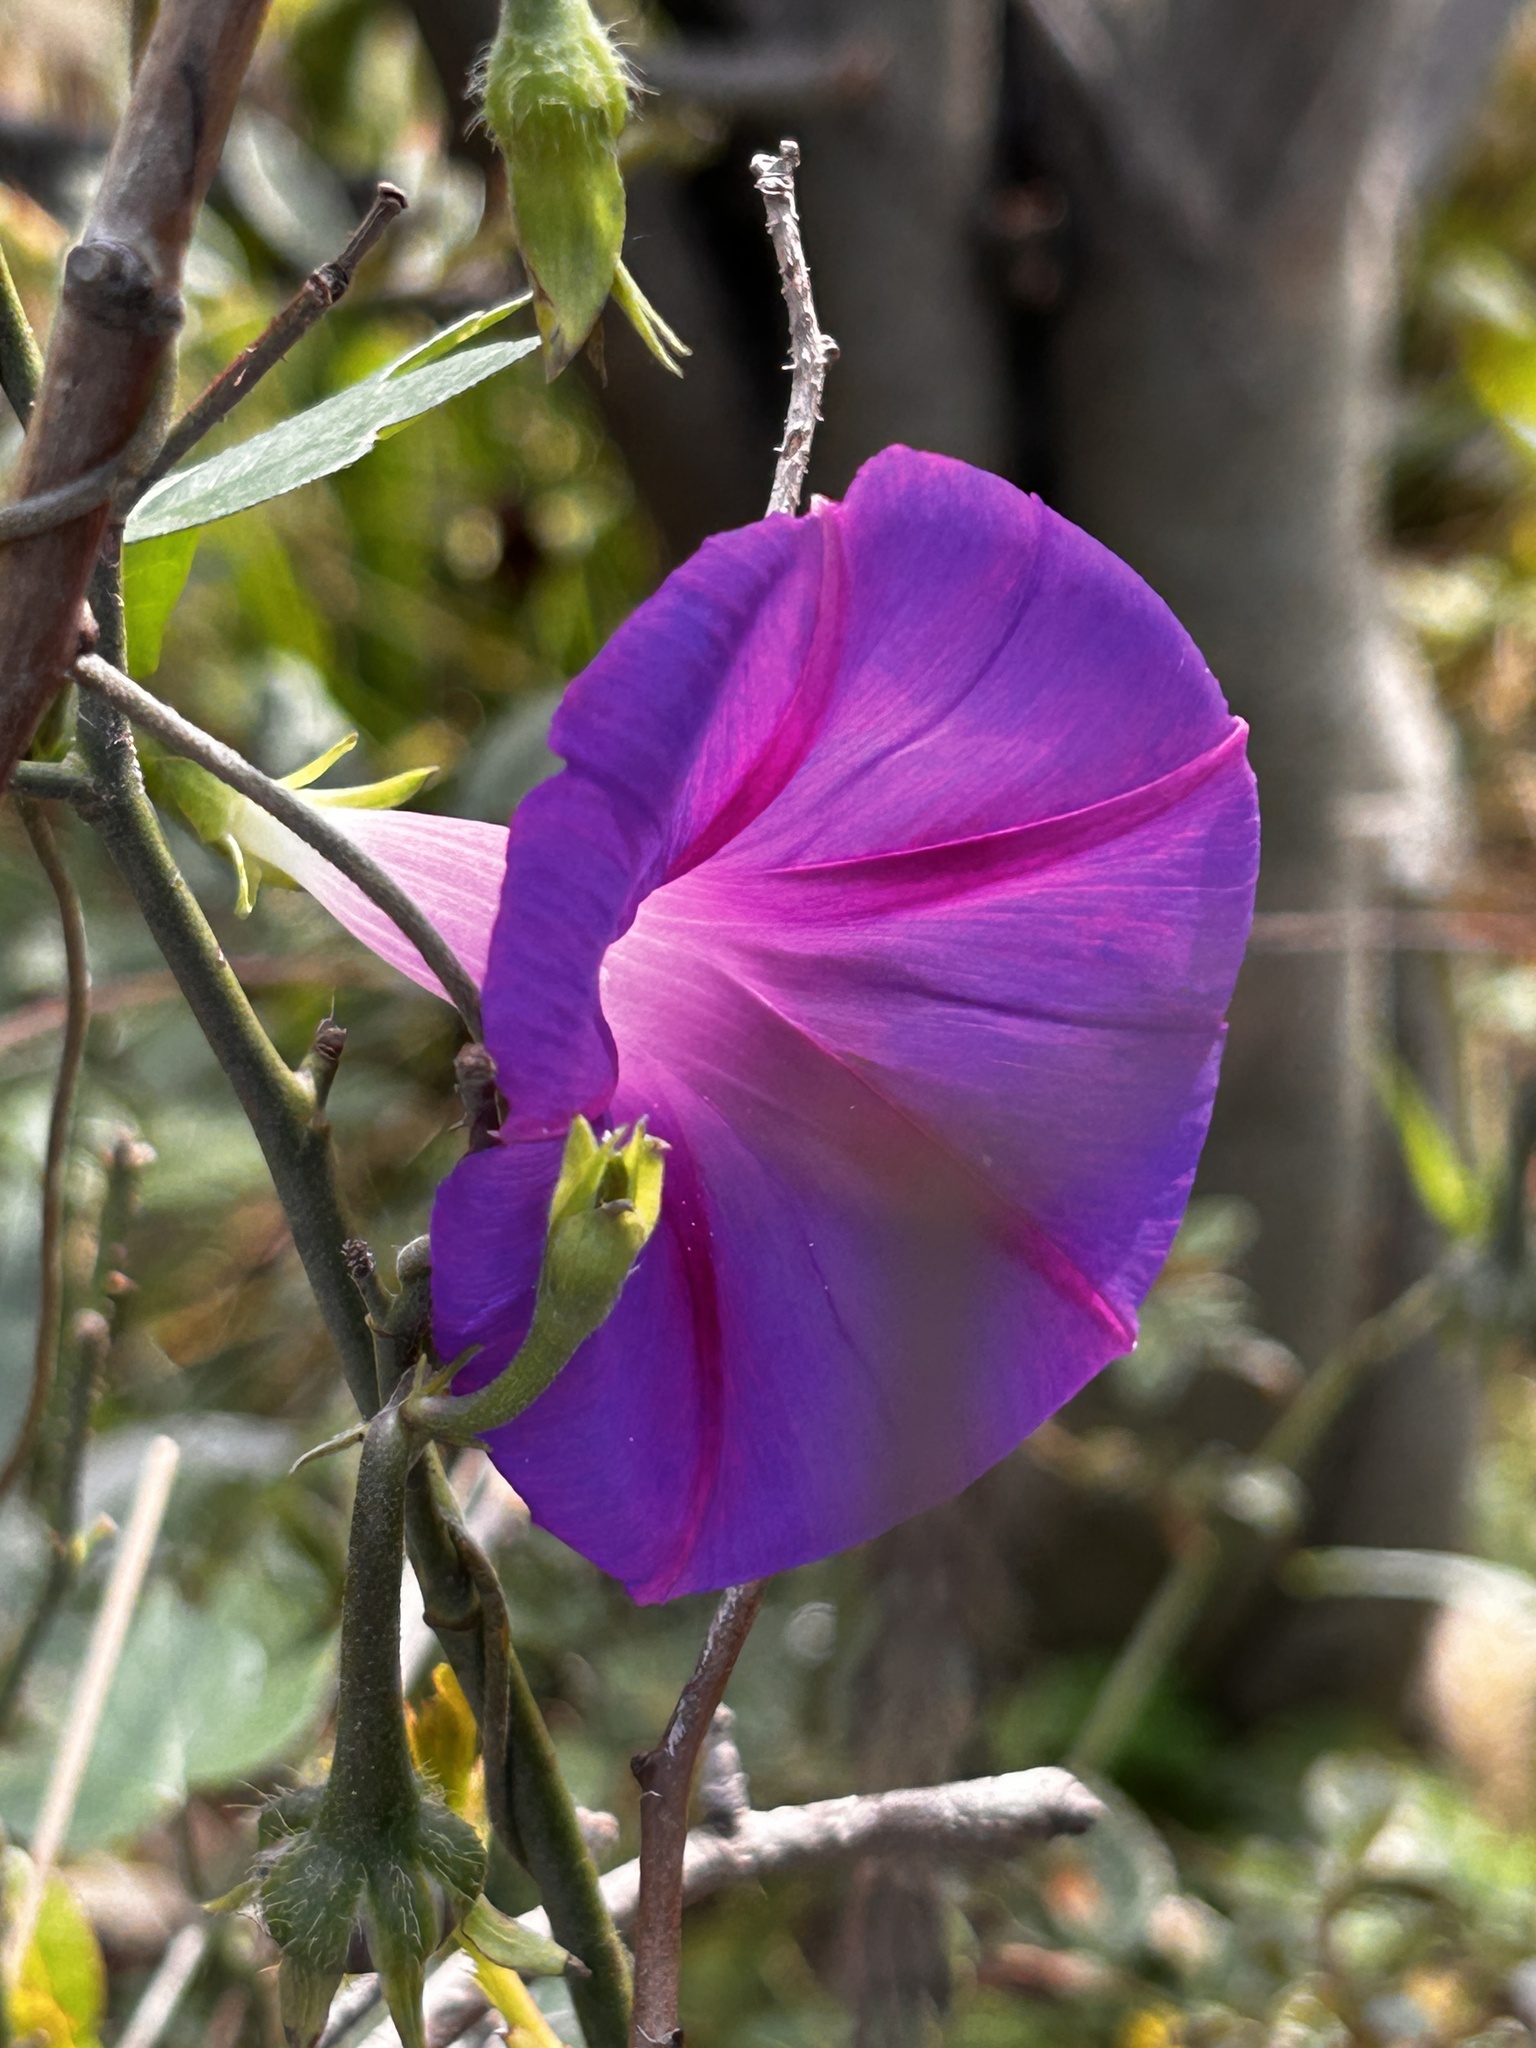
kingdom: Plantae
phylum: Tracheophyta
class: Magnoliopsida
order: Solanales
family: Convolvulaceae
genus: Ipomoea
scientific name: Ipomoea purpurea
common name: Common morning-glory
